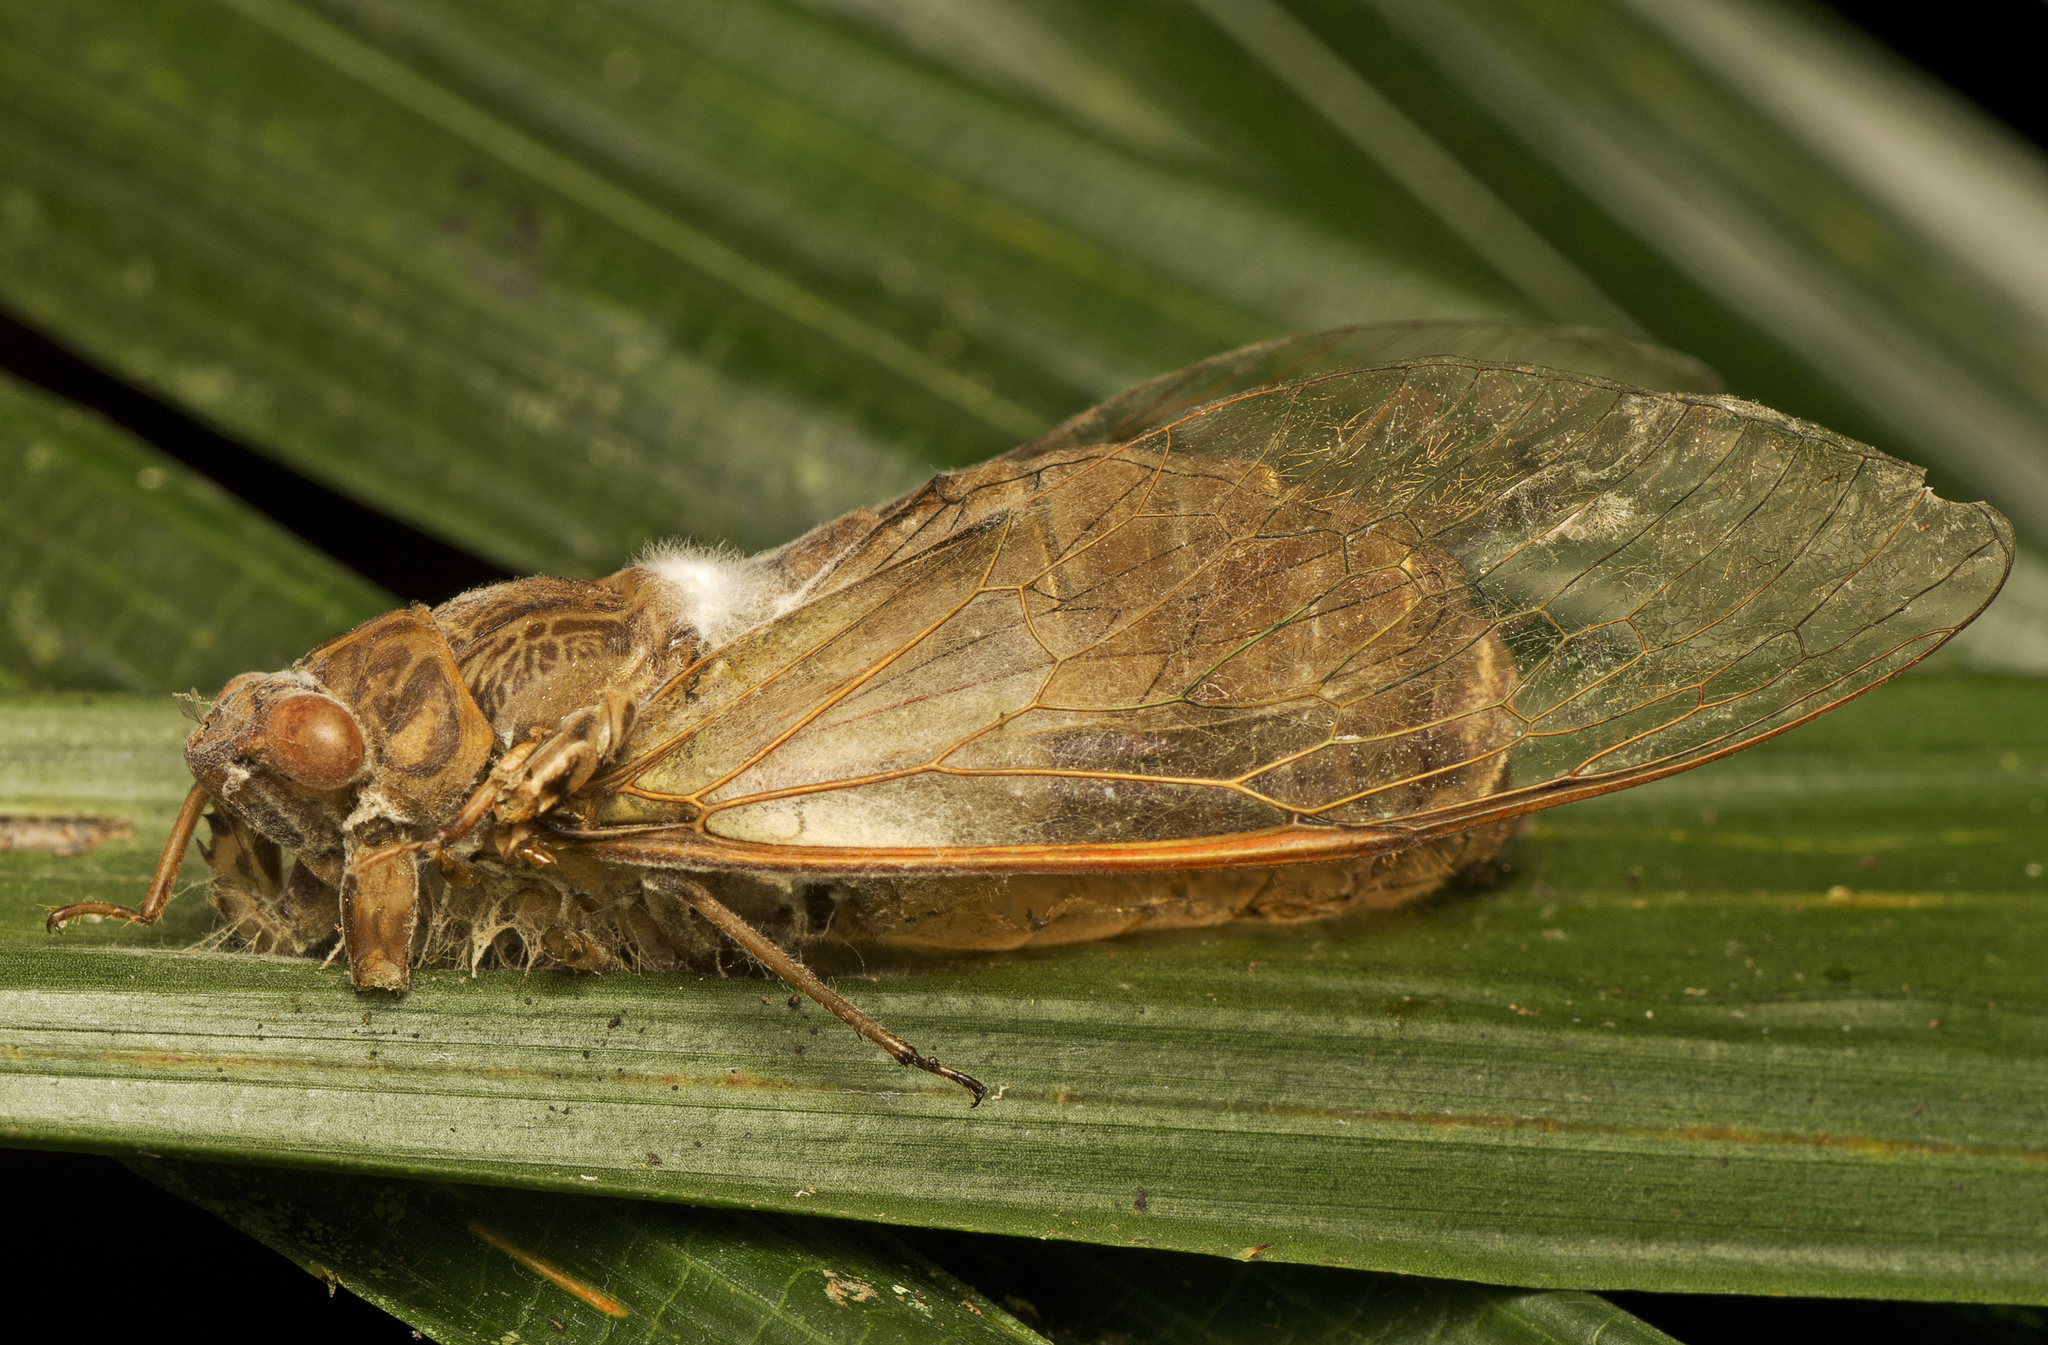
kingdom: Animalia
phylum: Arthropoda
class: Insecta
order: Hemiptera
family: Cicadidae
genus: Chlorocysta
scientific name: Chlorocysta suffusa
